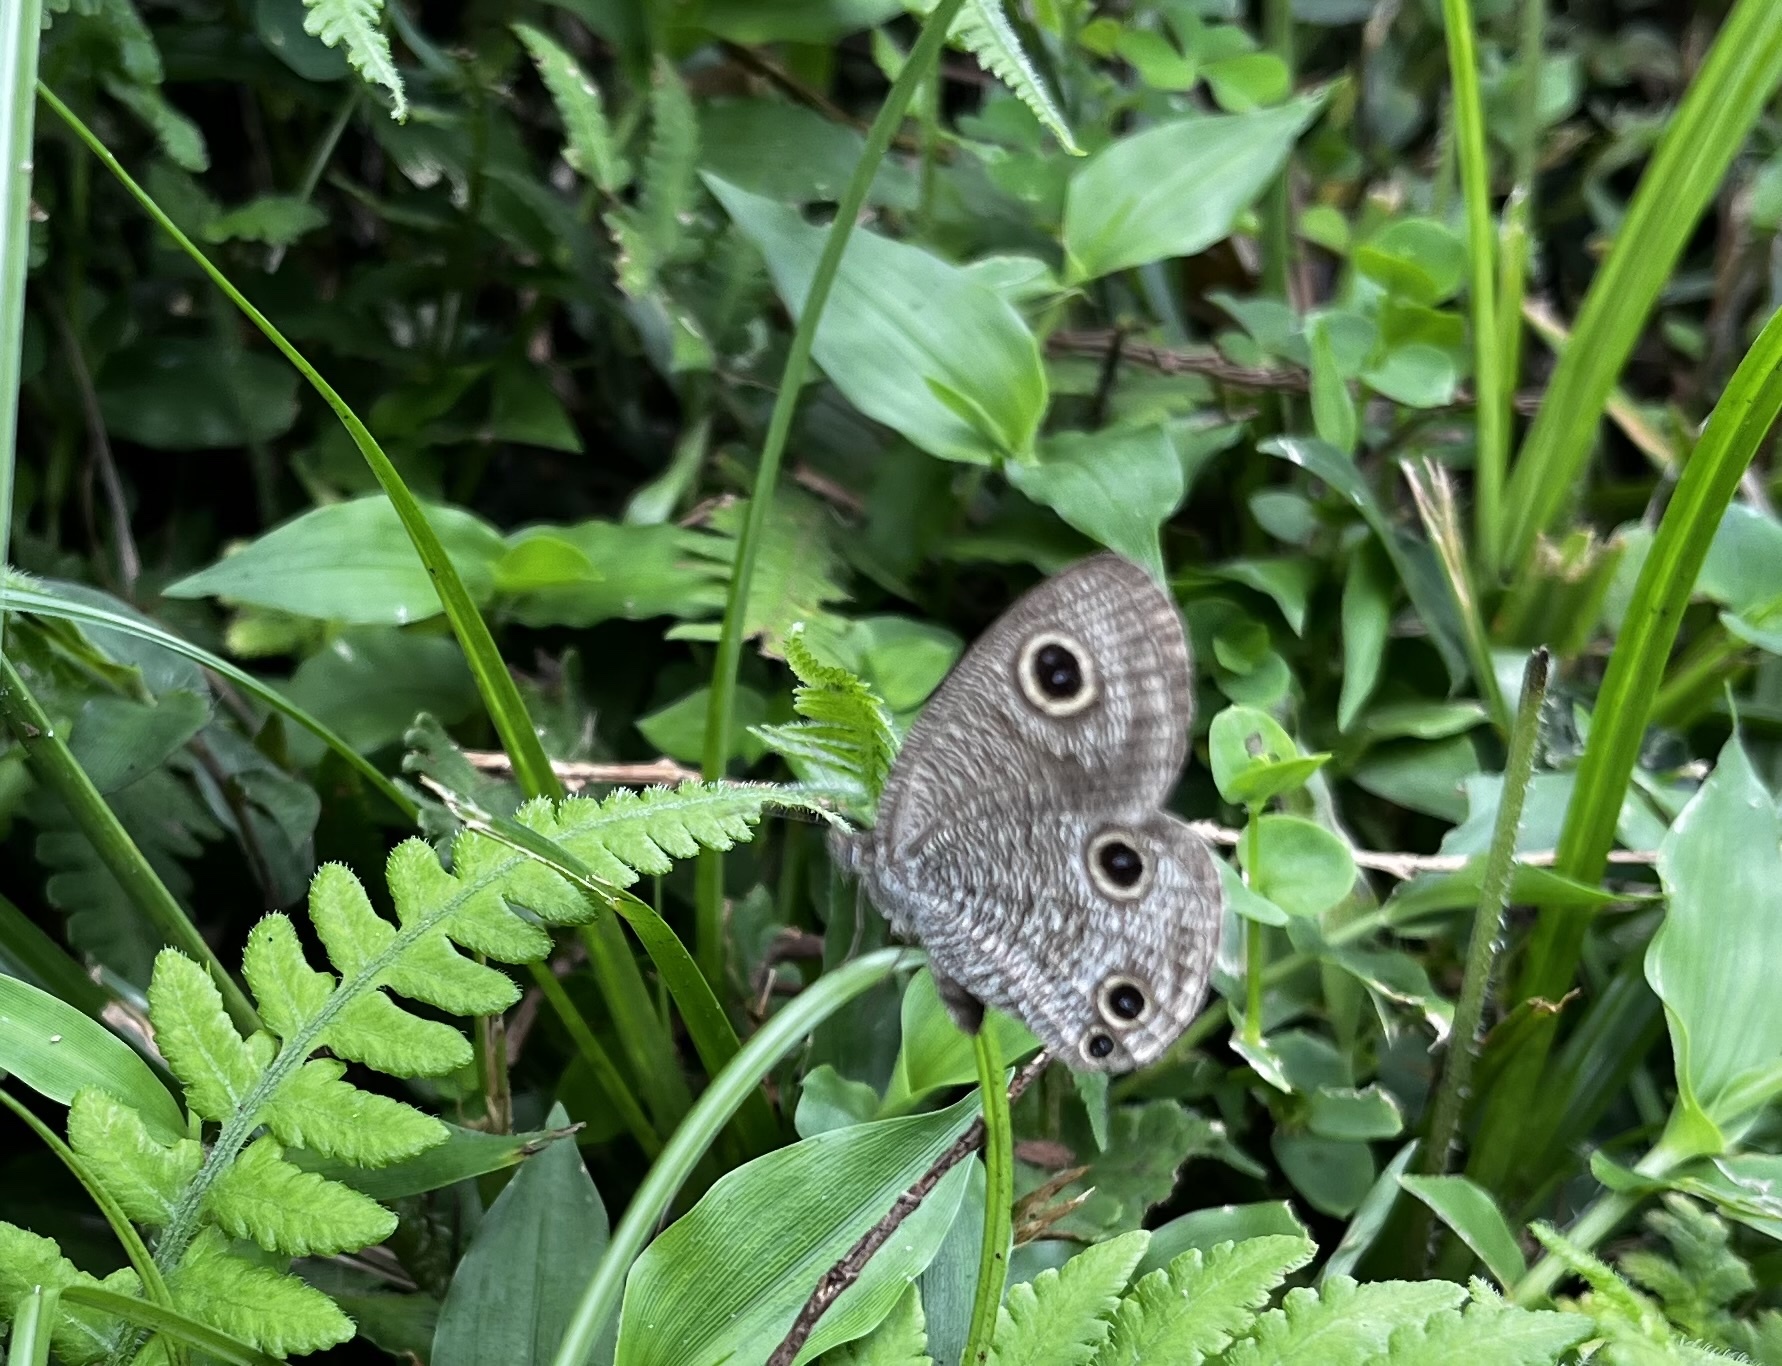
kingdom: Animalia
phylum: Arthropoda
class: Insecta
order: Lepidoptera
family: Nymphalidae
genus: Ypthima
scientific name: Ypthima multistriata
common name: Striated ringlet
